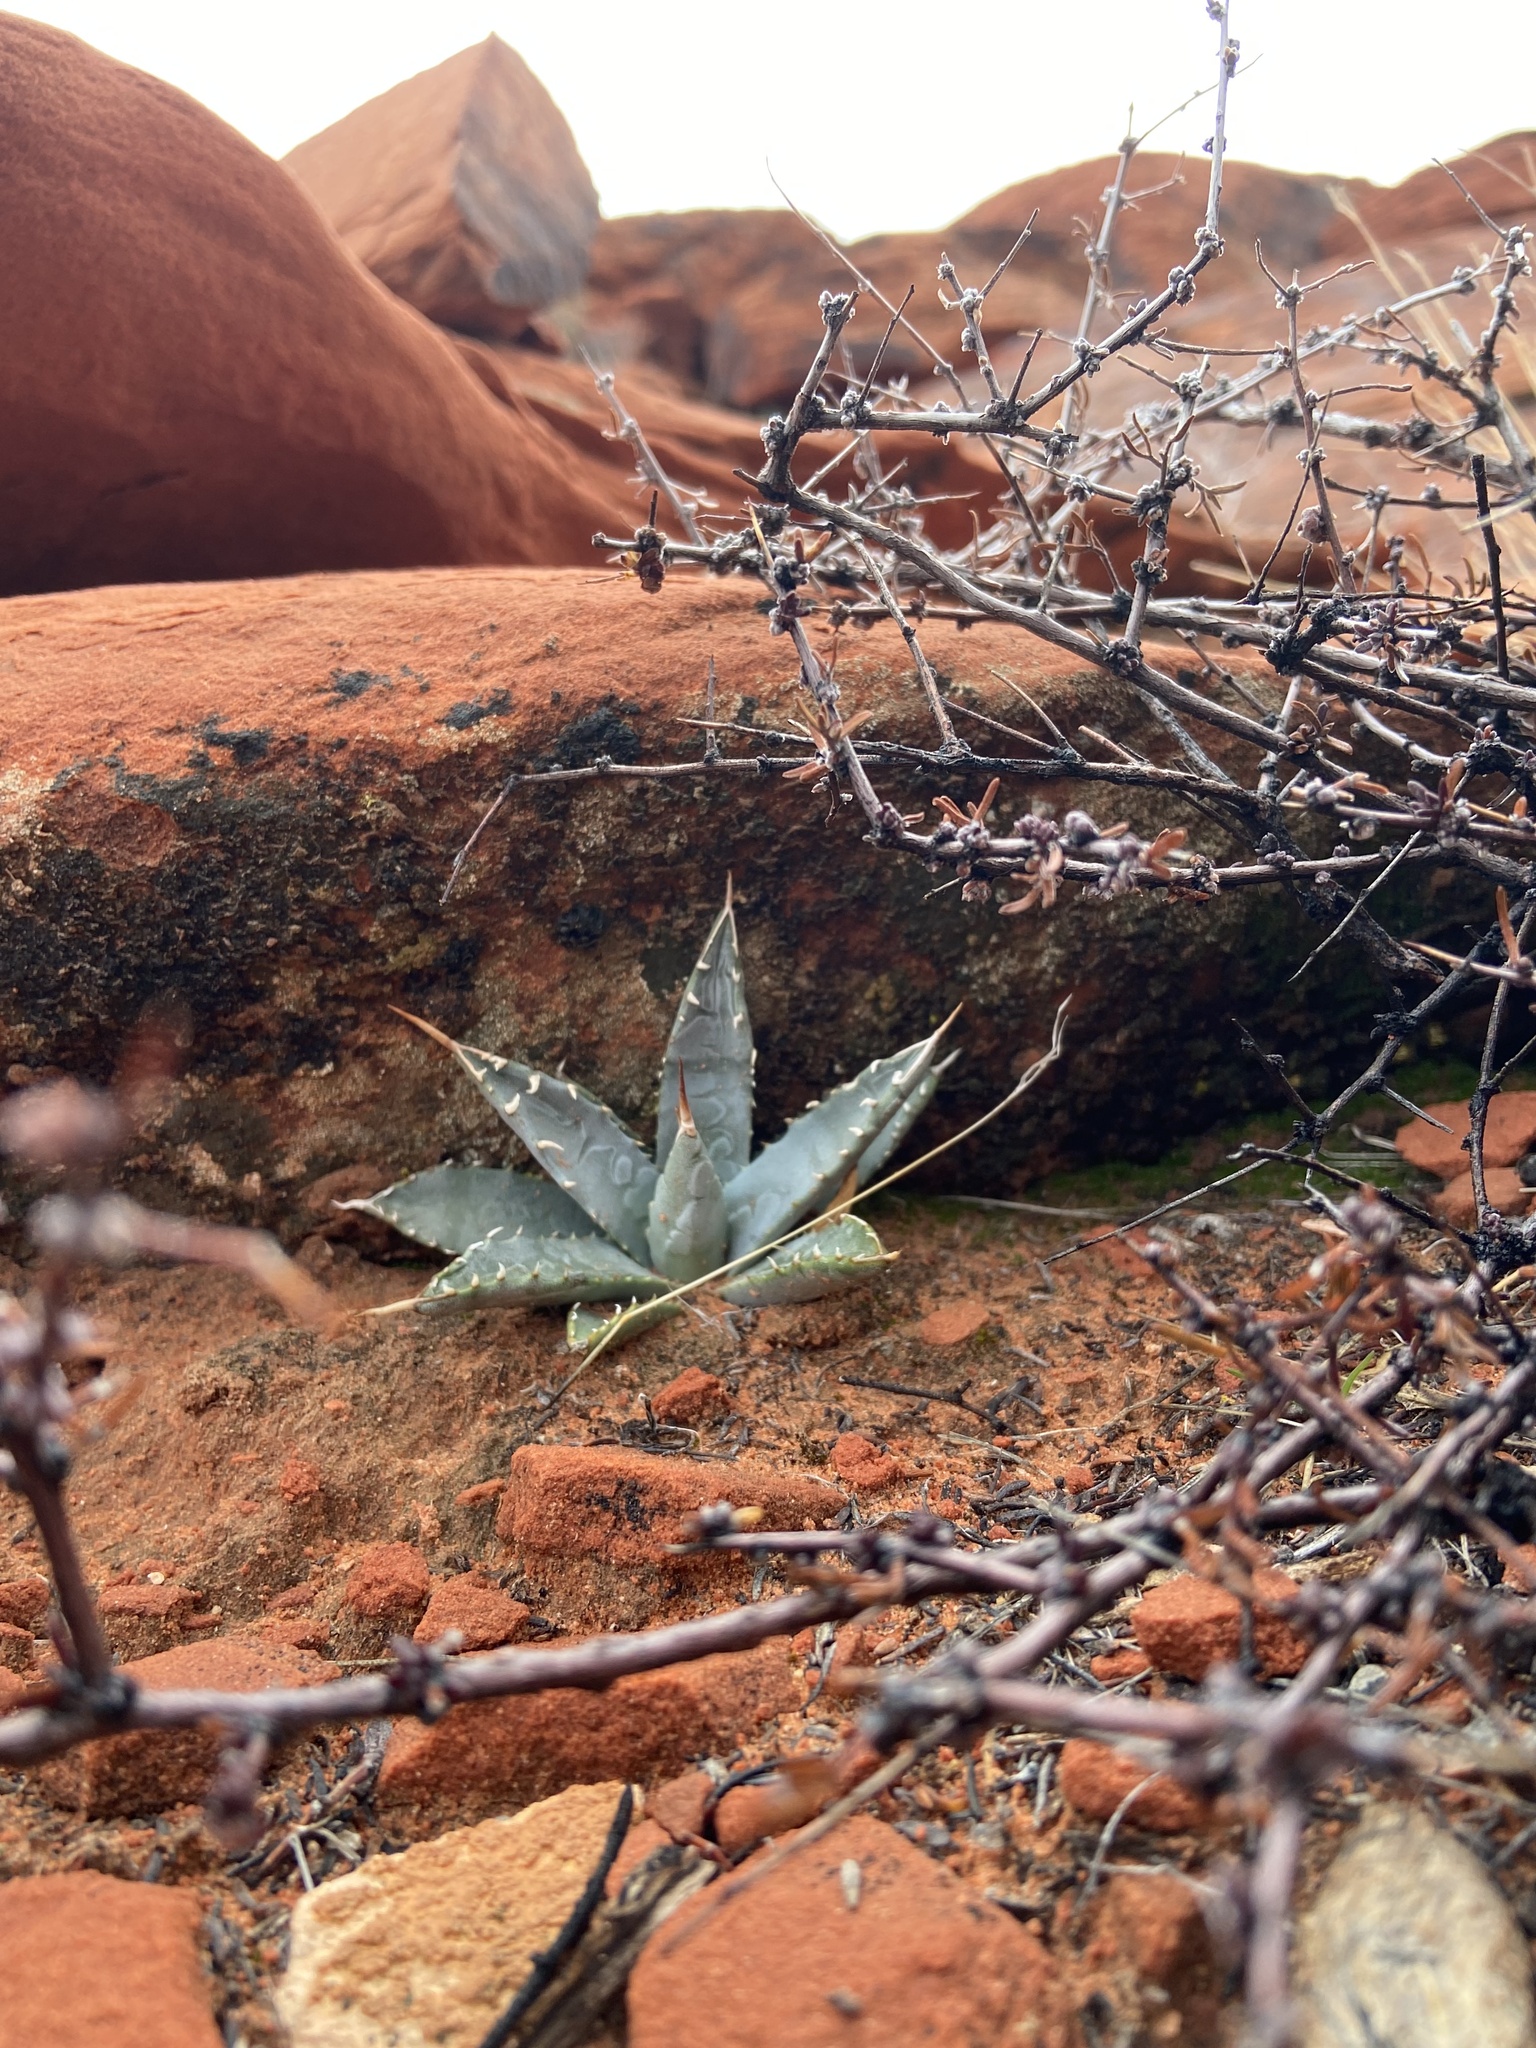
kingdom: Plantae
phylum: Tracheophyta
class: Liliopsida
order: Asparagales
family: Asparagaceae
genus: Agave
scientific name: Agave utahensis
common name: Utah agave
